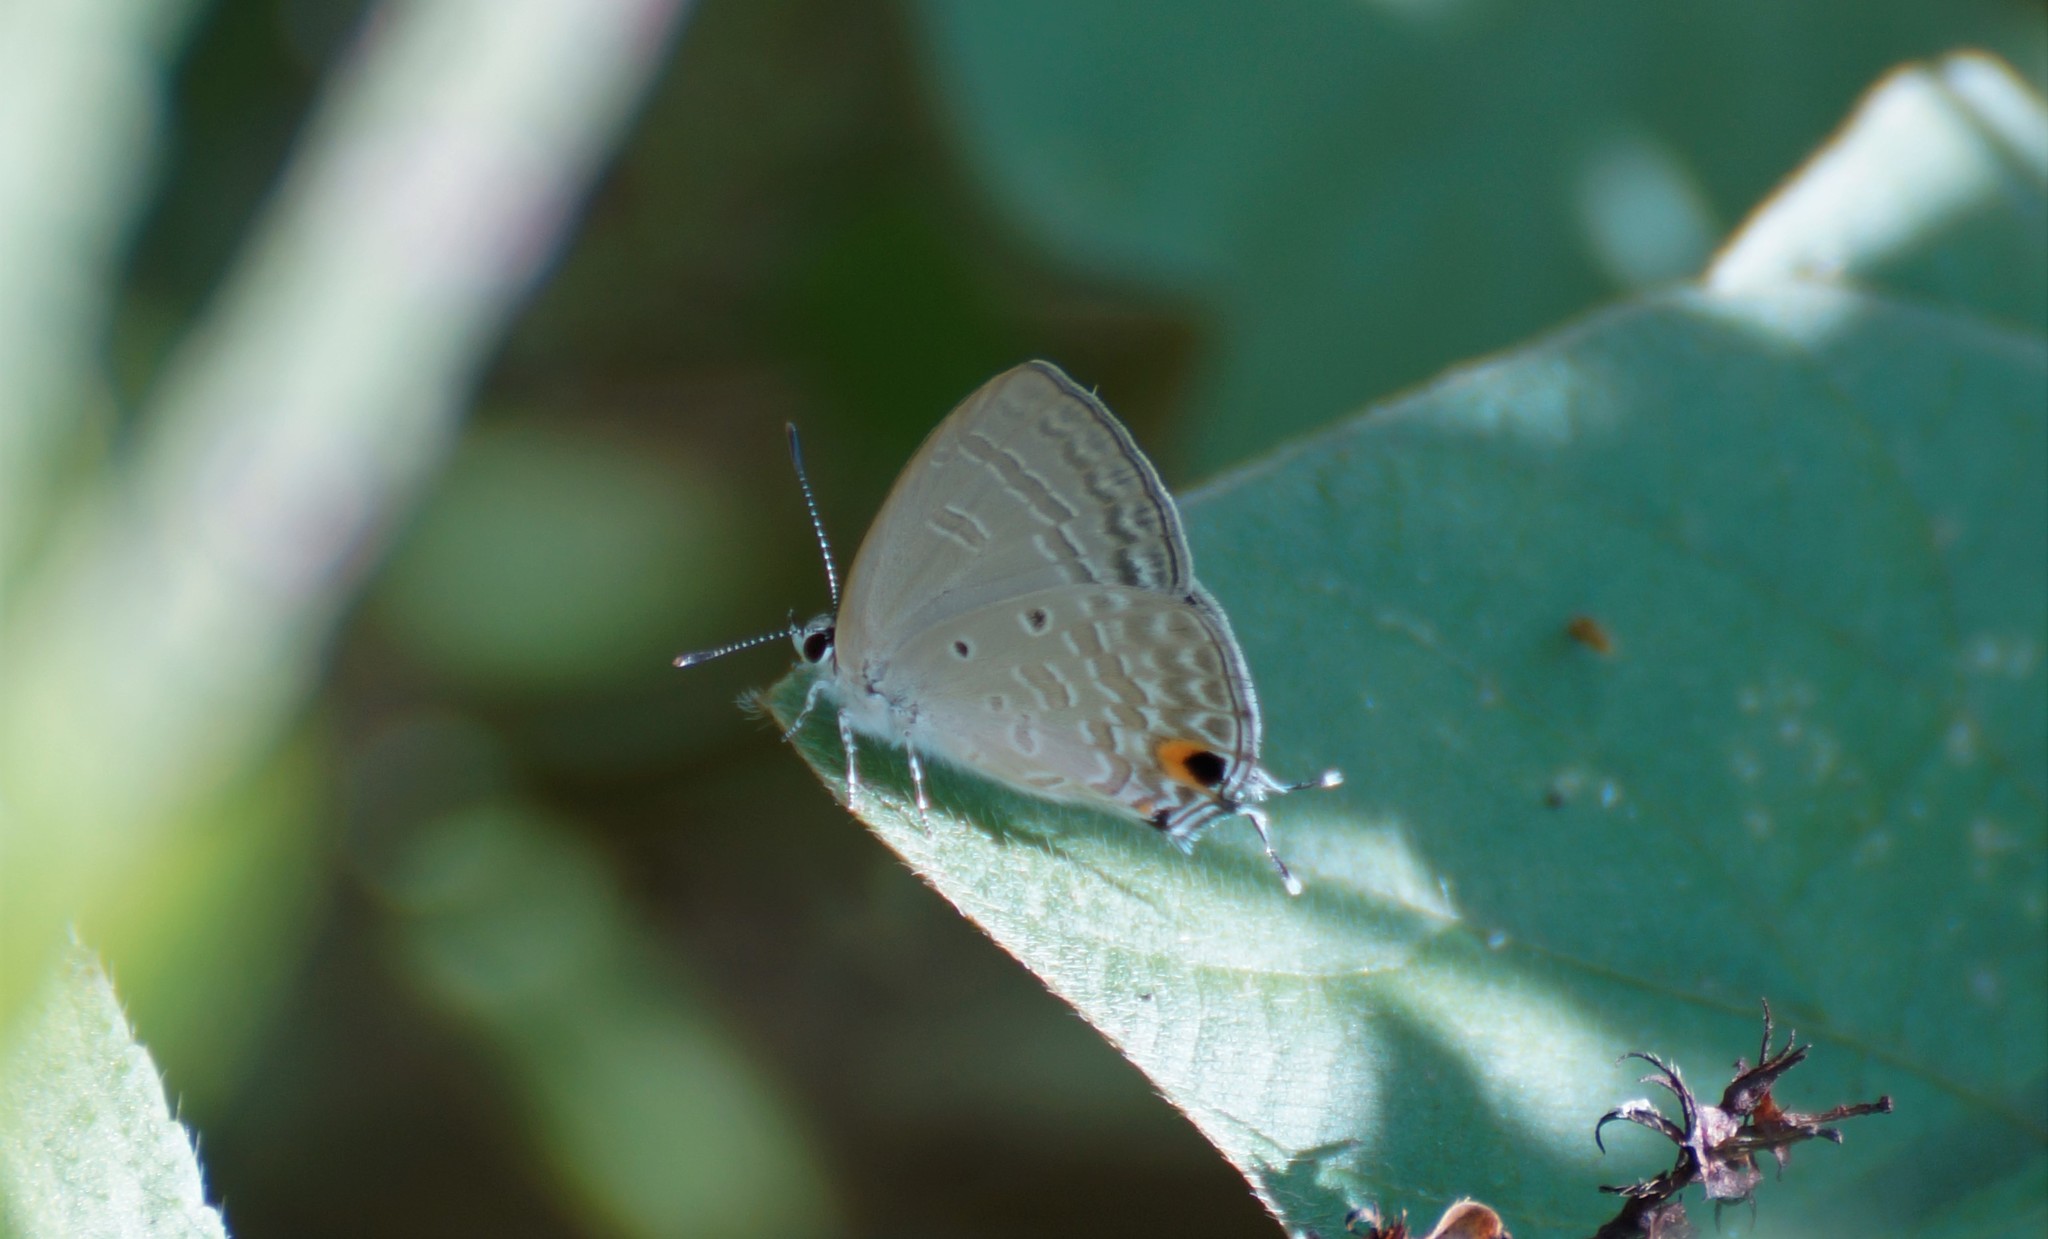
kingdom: Animalia
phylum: Arthropoda
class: Insecta
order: Lepidoptera
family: Lycaenidae
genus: Catochrysops
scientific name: Catochrysops panormus
